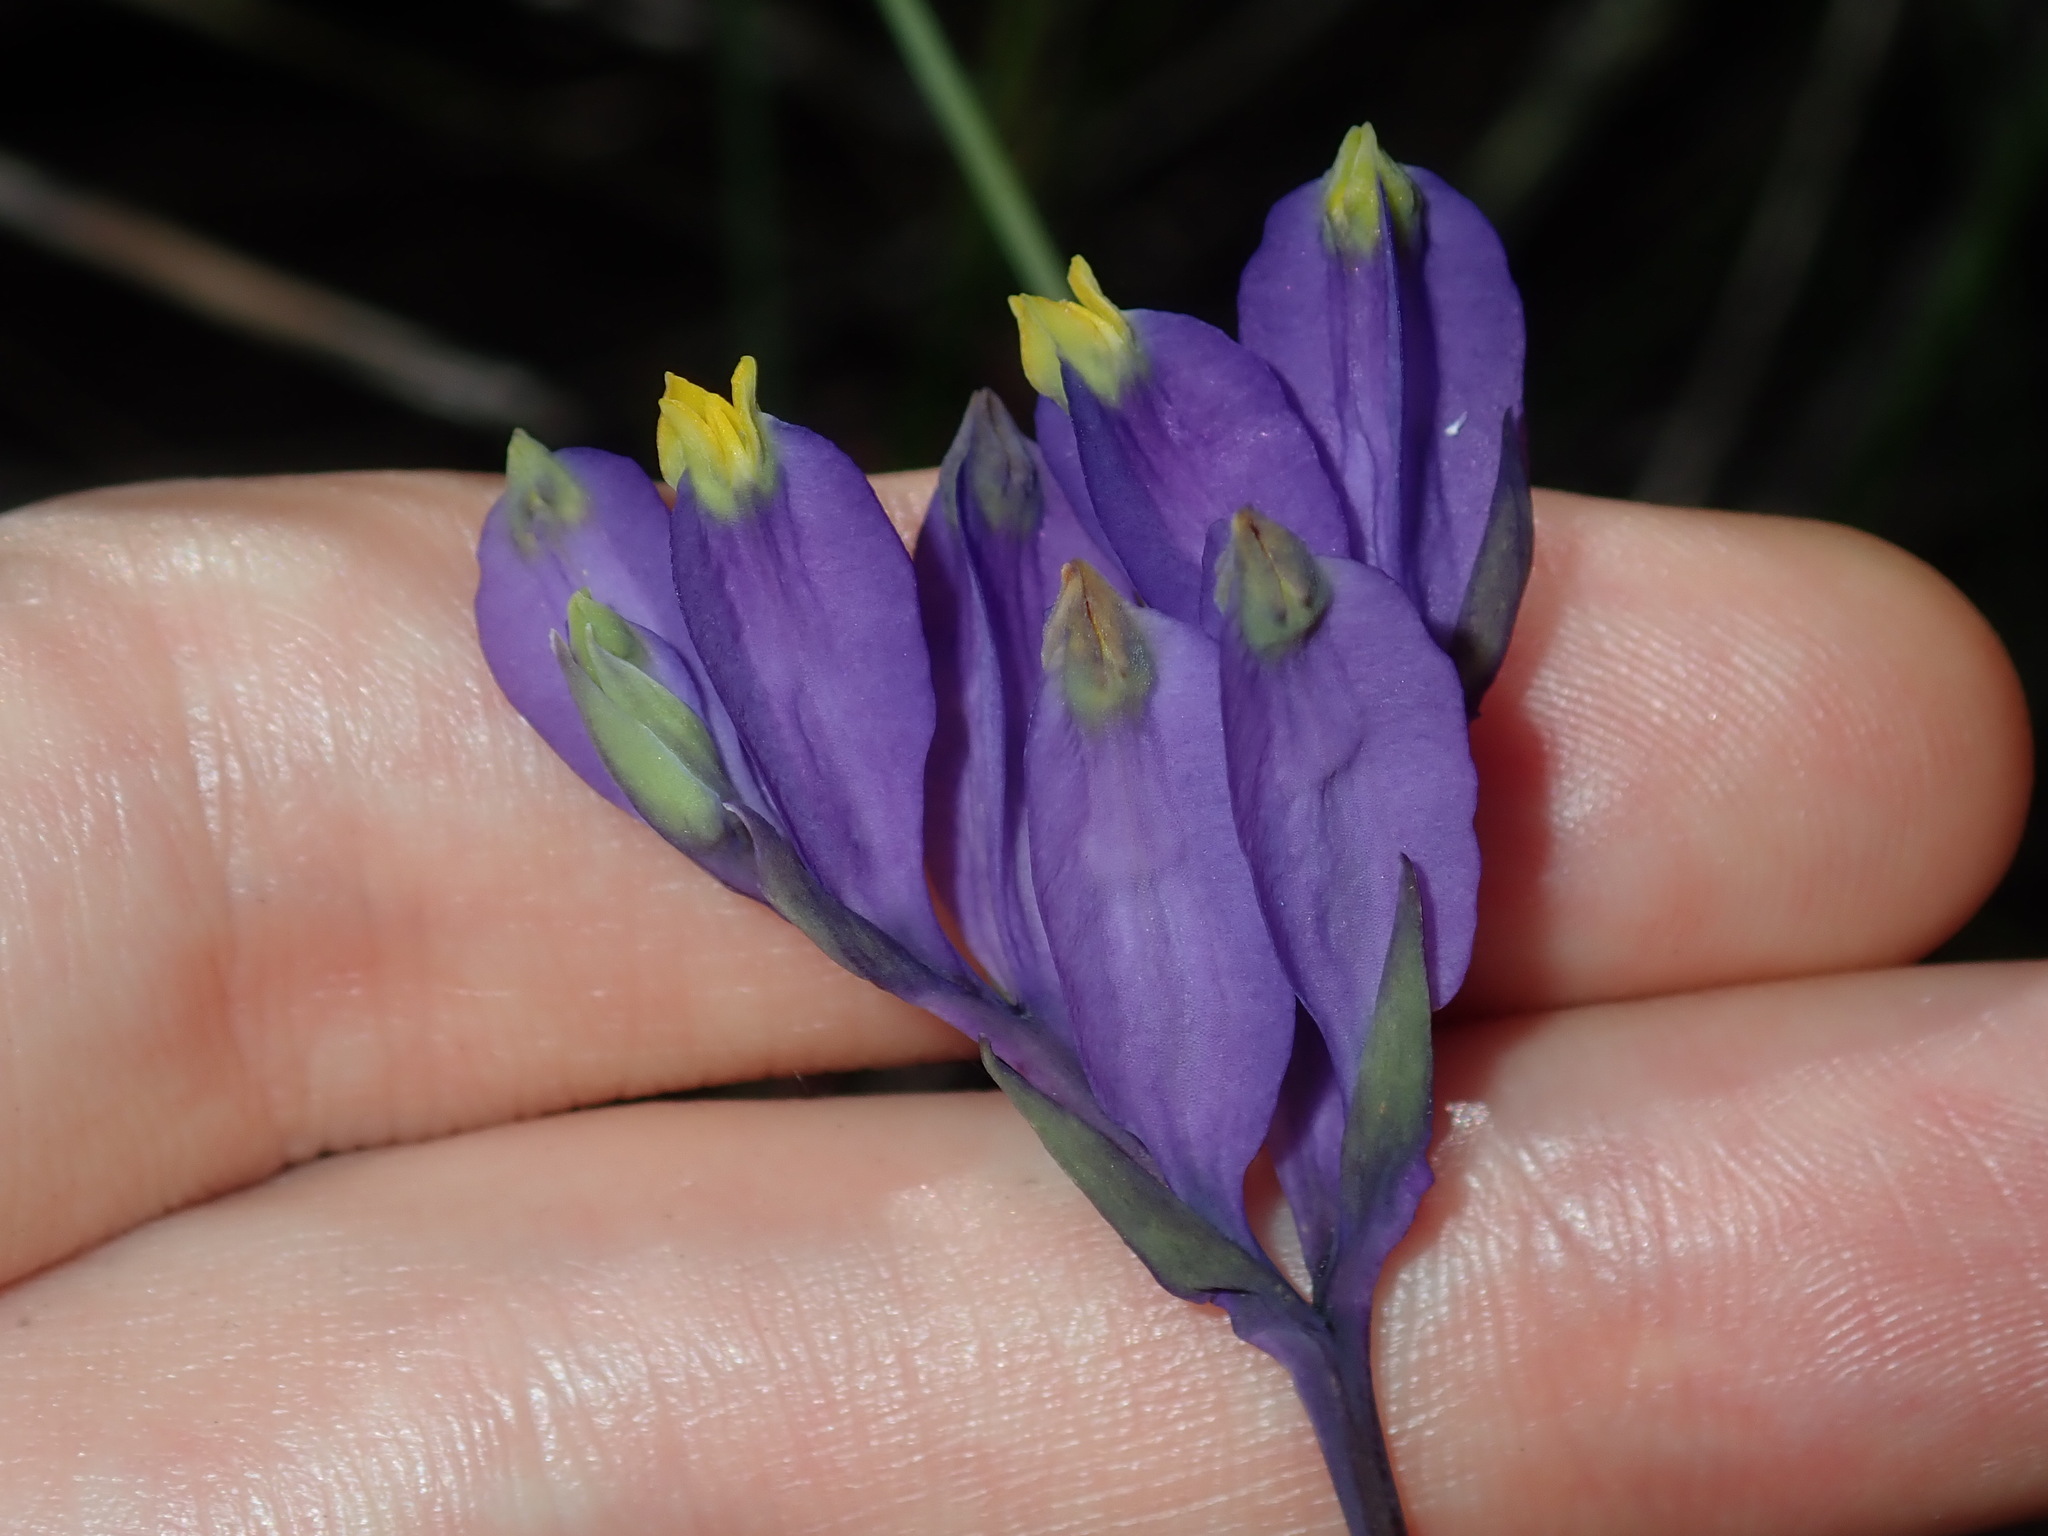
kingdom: Plantae
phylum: Tracheophyta
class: Liliopsida
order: Dioscoreales
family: Burmanniaceae
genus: Burmannia
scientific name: Burmannia disticha
